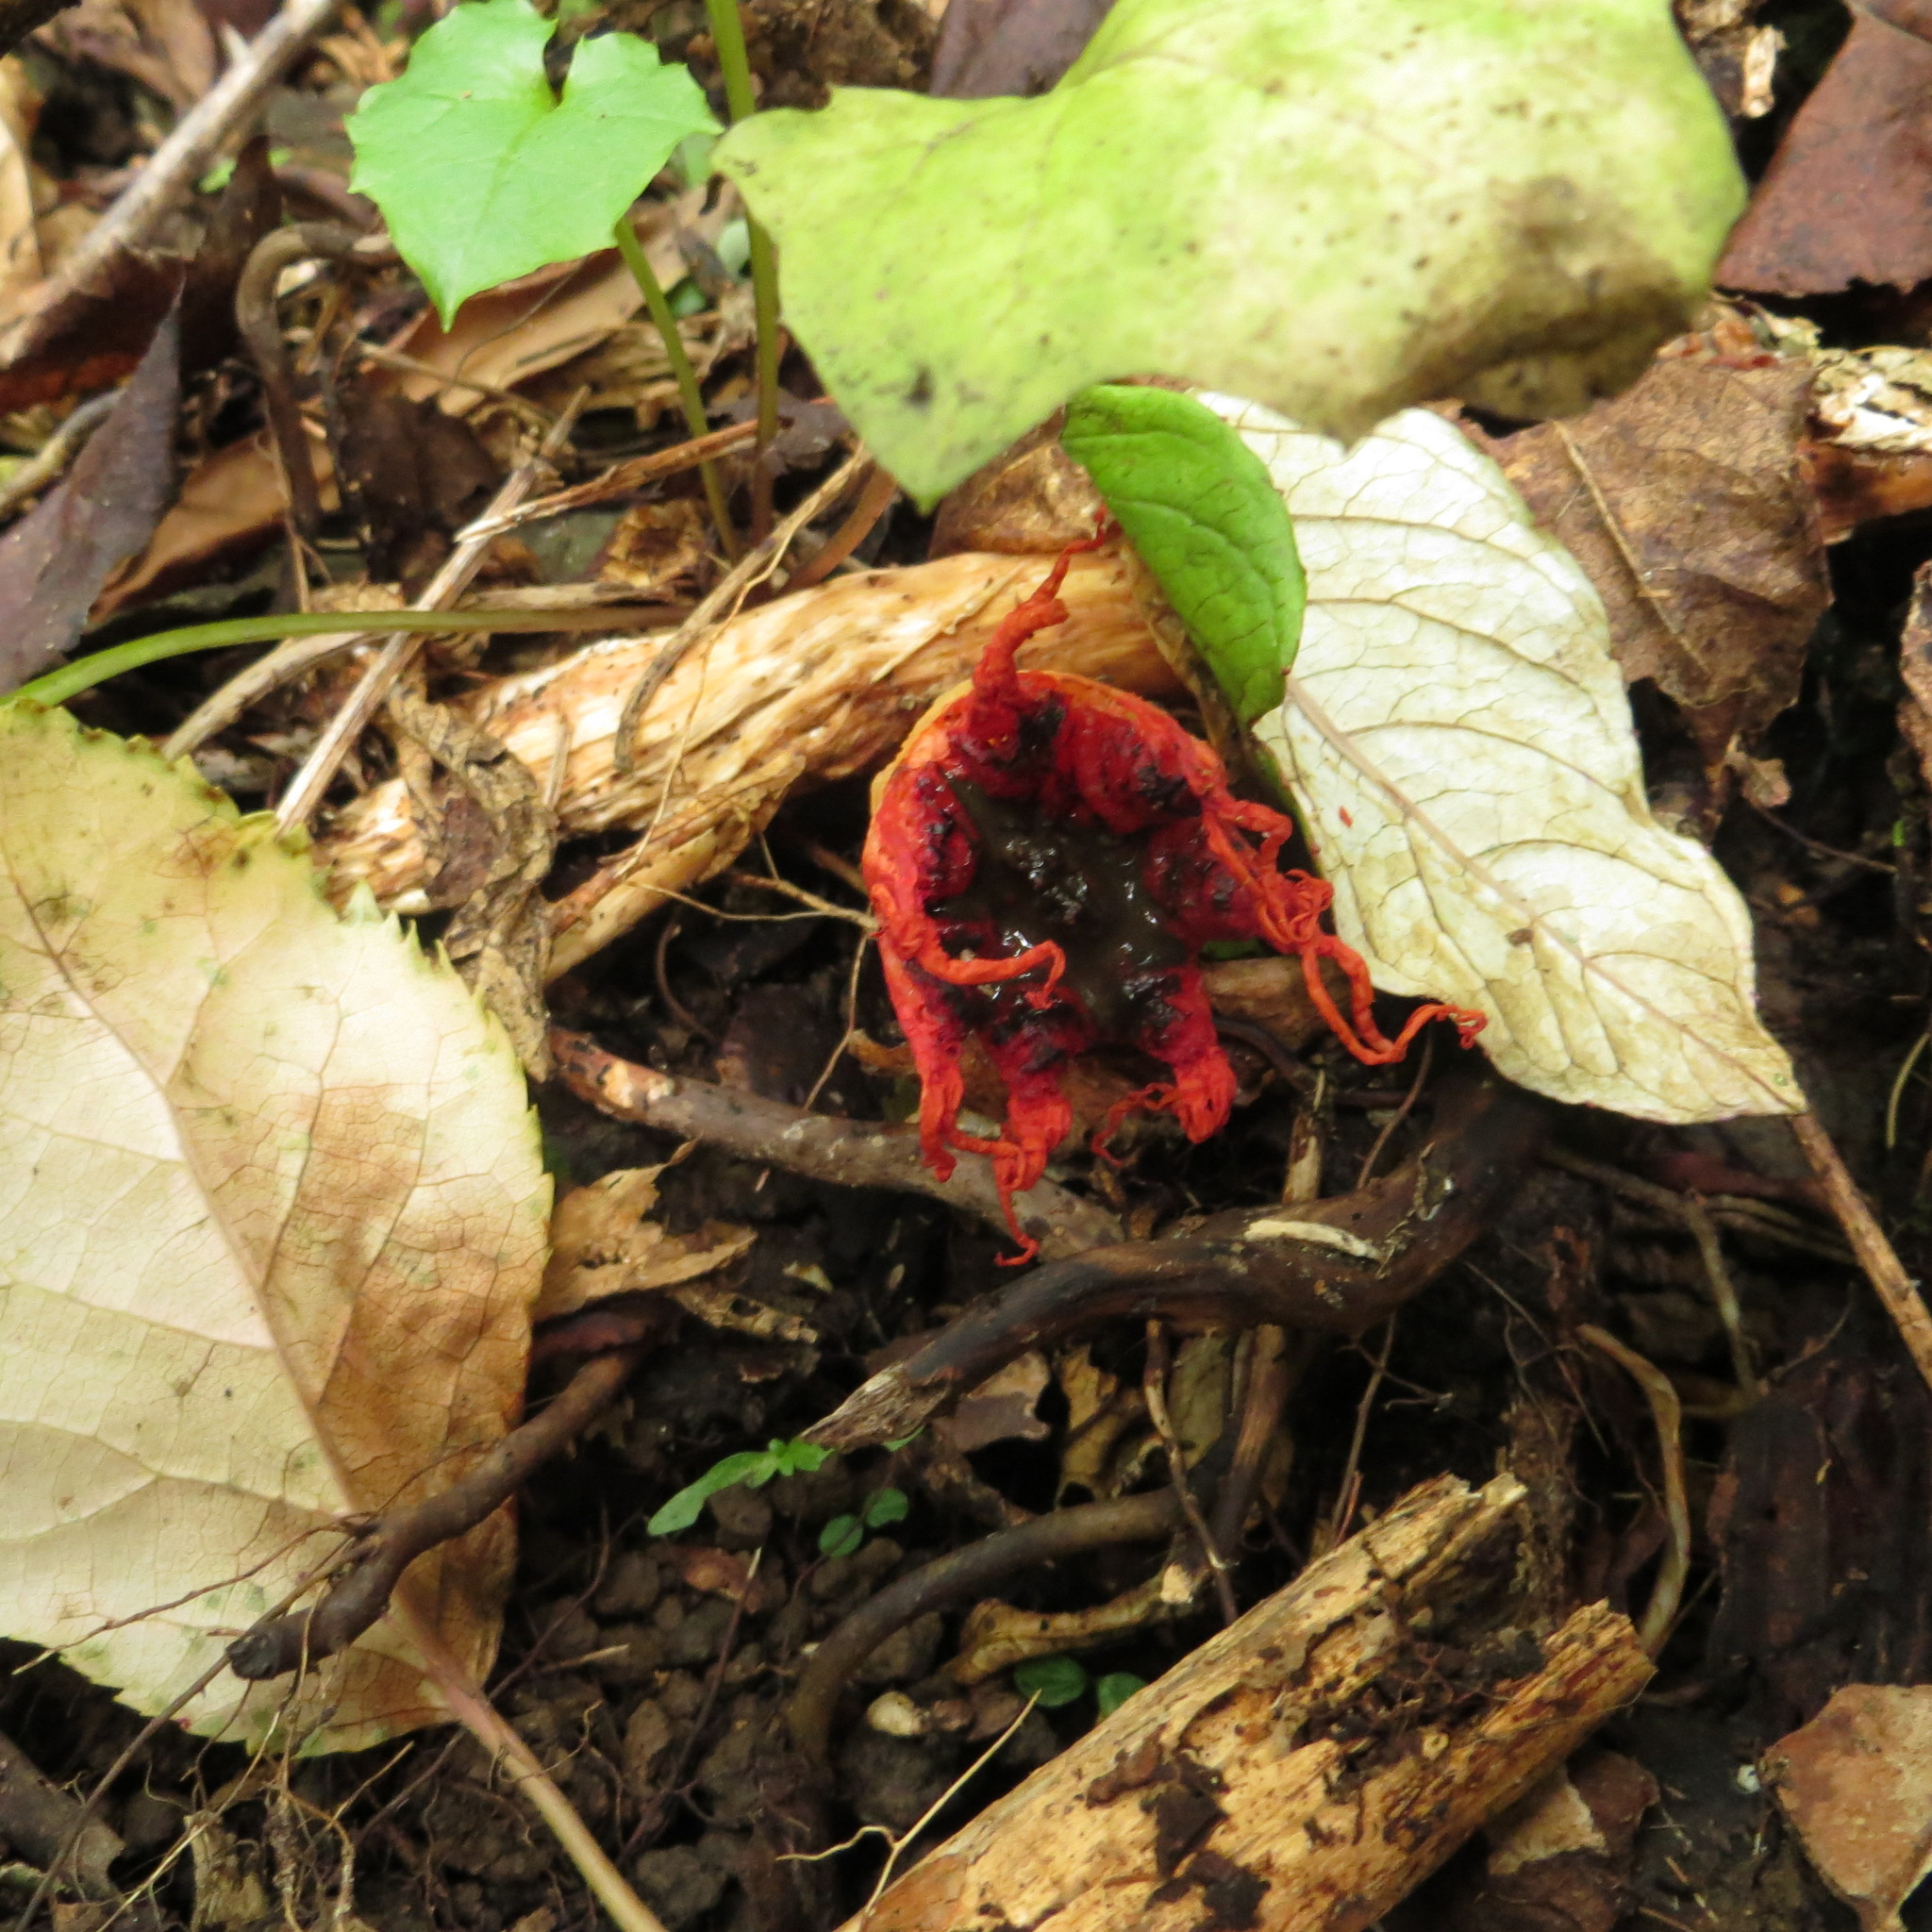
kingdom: Fungi
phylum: Basidiomycota
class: Agaricomycetes
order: Phallales
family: Phallaceae
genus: Aseroe
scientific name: Aseroe rubra
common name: Starfish fungus
